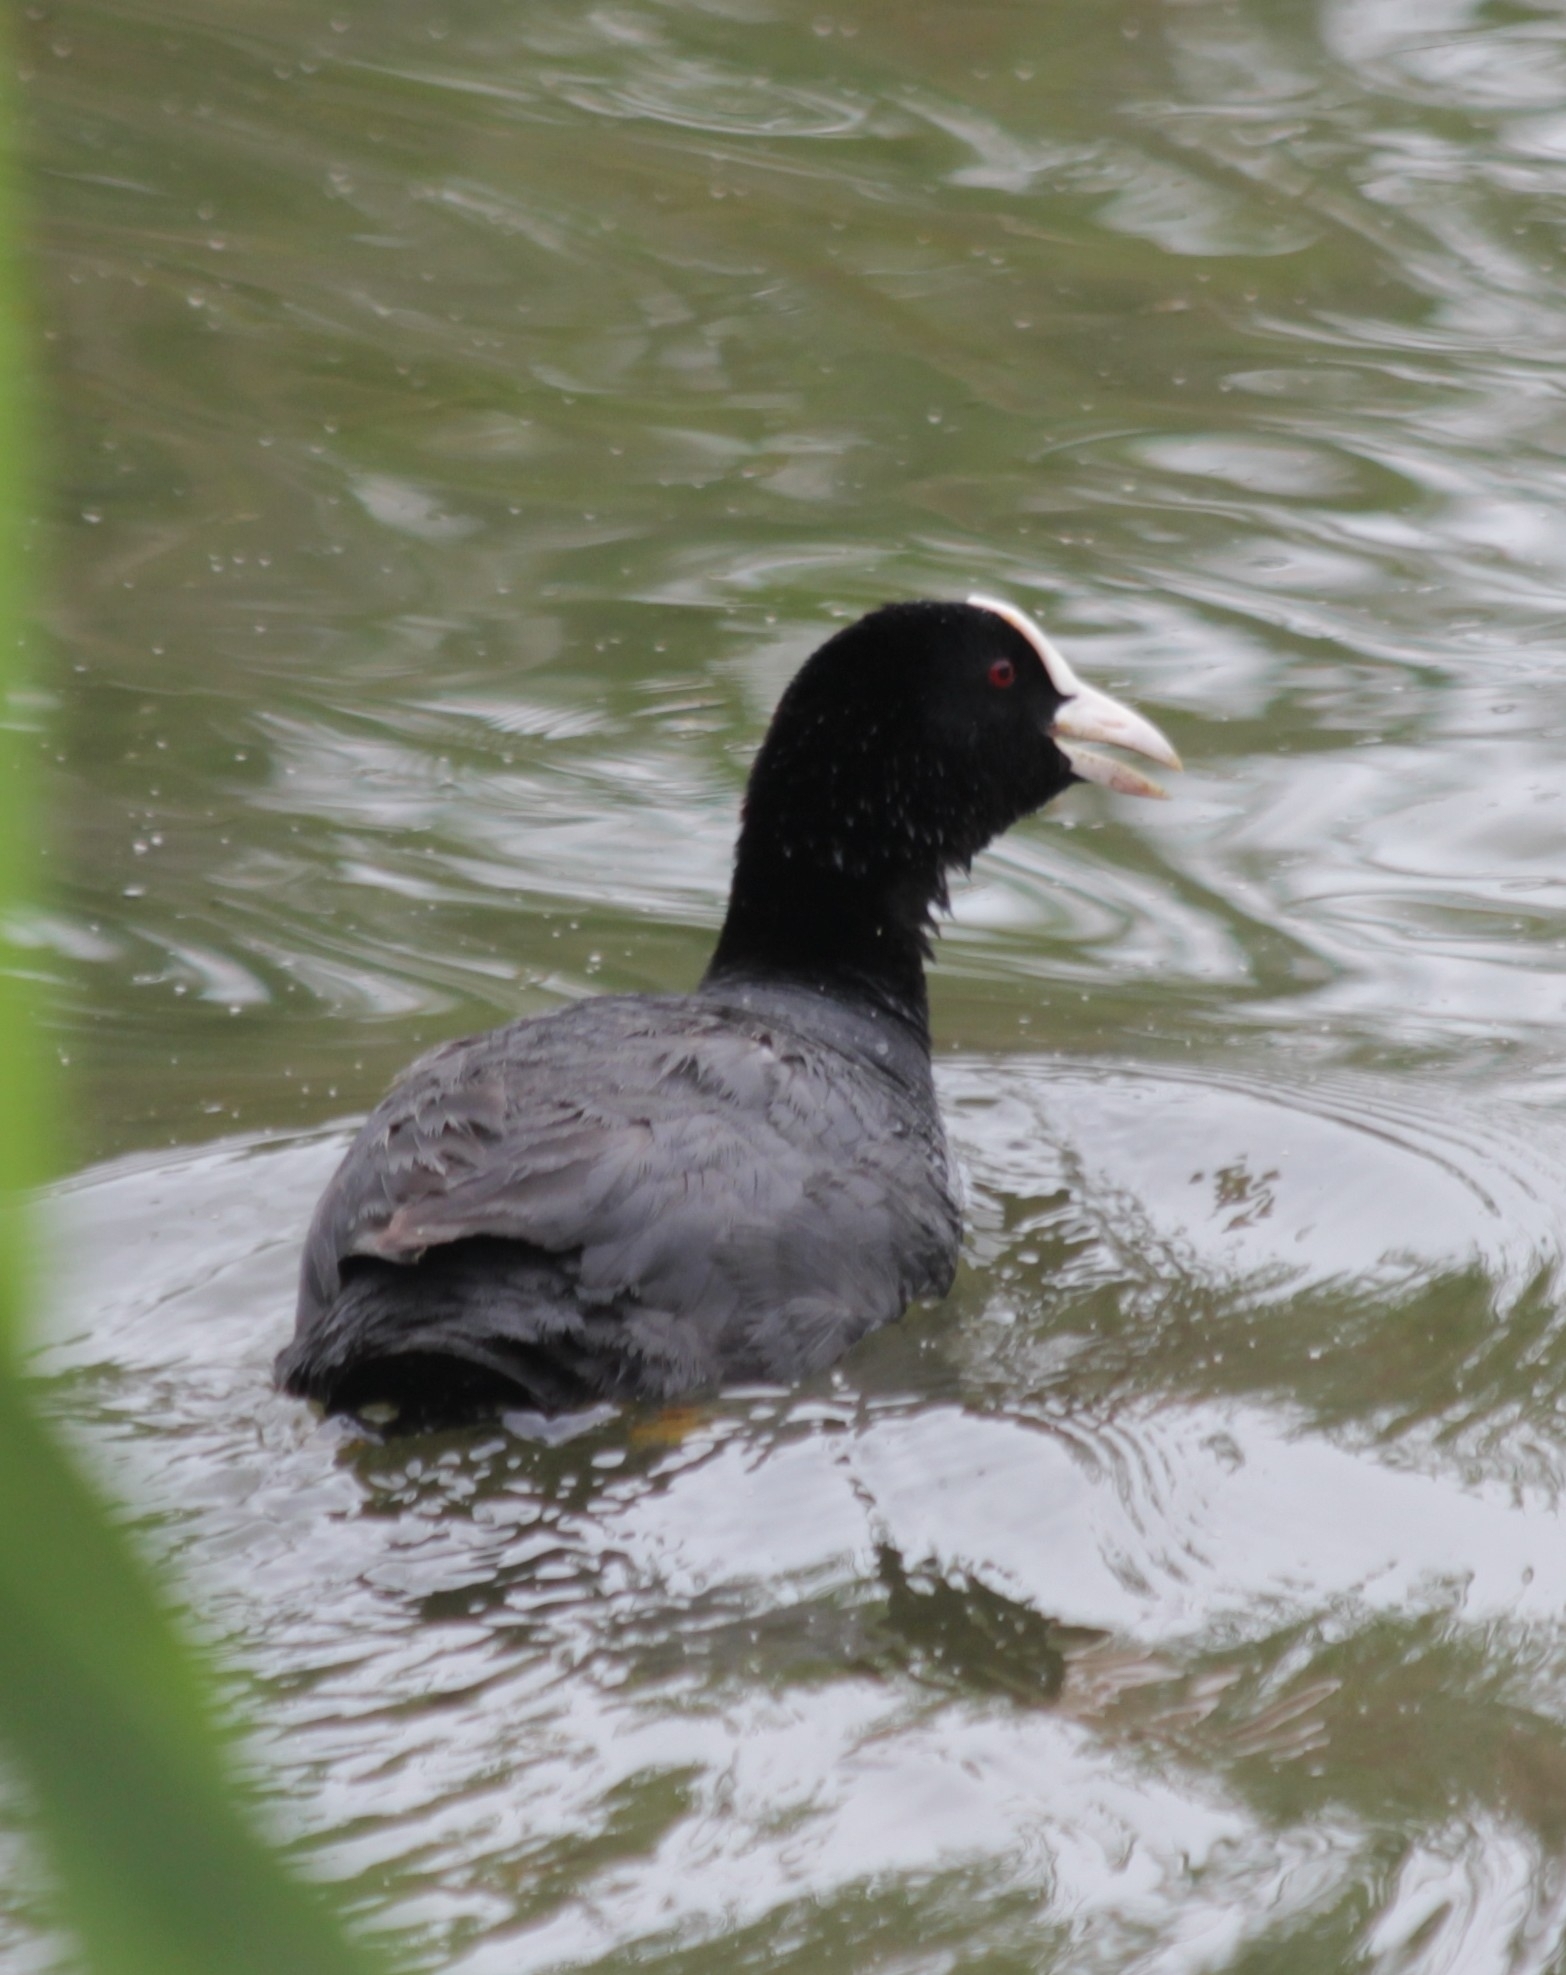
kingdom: Animalia
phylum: Chordata
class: Aves
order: Gruiformes
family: Rallidae
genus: Fulica
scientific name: Fulica atra
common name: Eurasian coot
